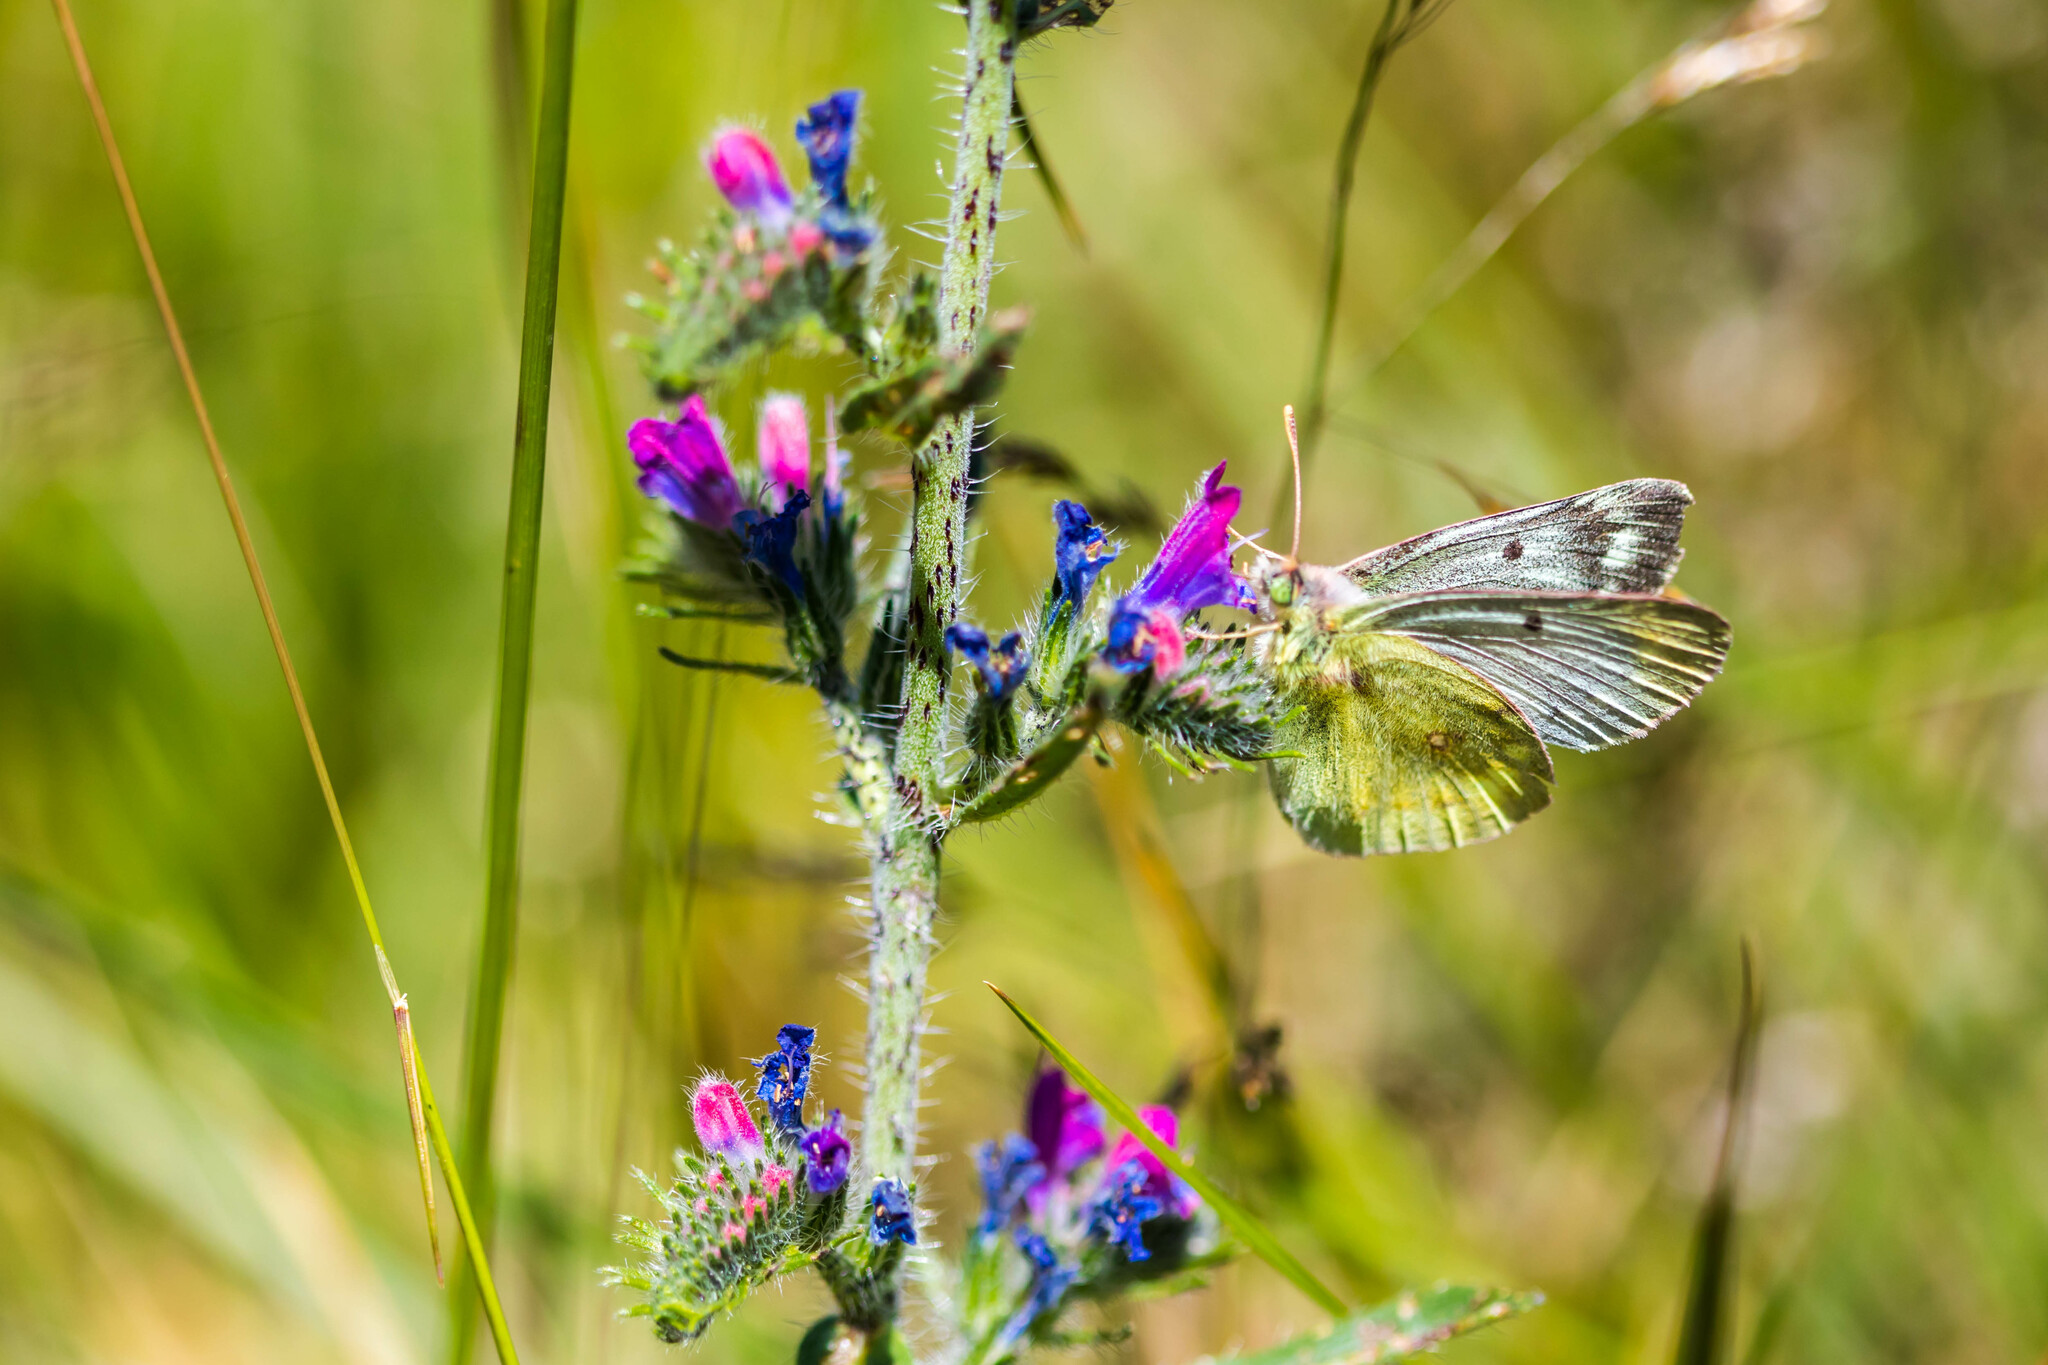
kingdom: Animalia
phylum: Arthropoda
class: Insecta
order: Lepidoptera
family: Pieridae
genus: Colias
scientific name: Colias phicomone
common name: Mountain clouded yellow
